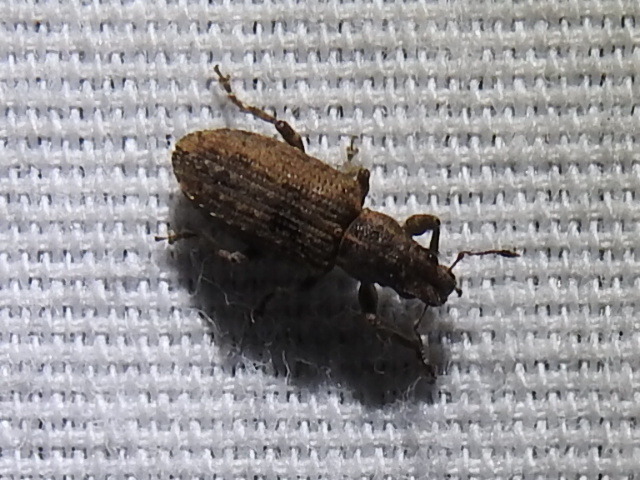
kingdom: Animalia
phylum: Arthropoda
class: Insecta
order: Coleoptera
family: Curculionidae
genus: Sitones
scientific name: Sitones californius
